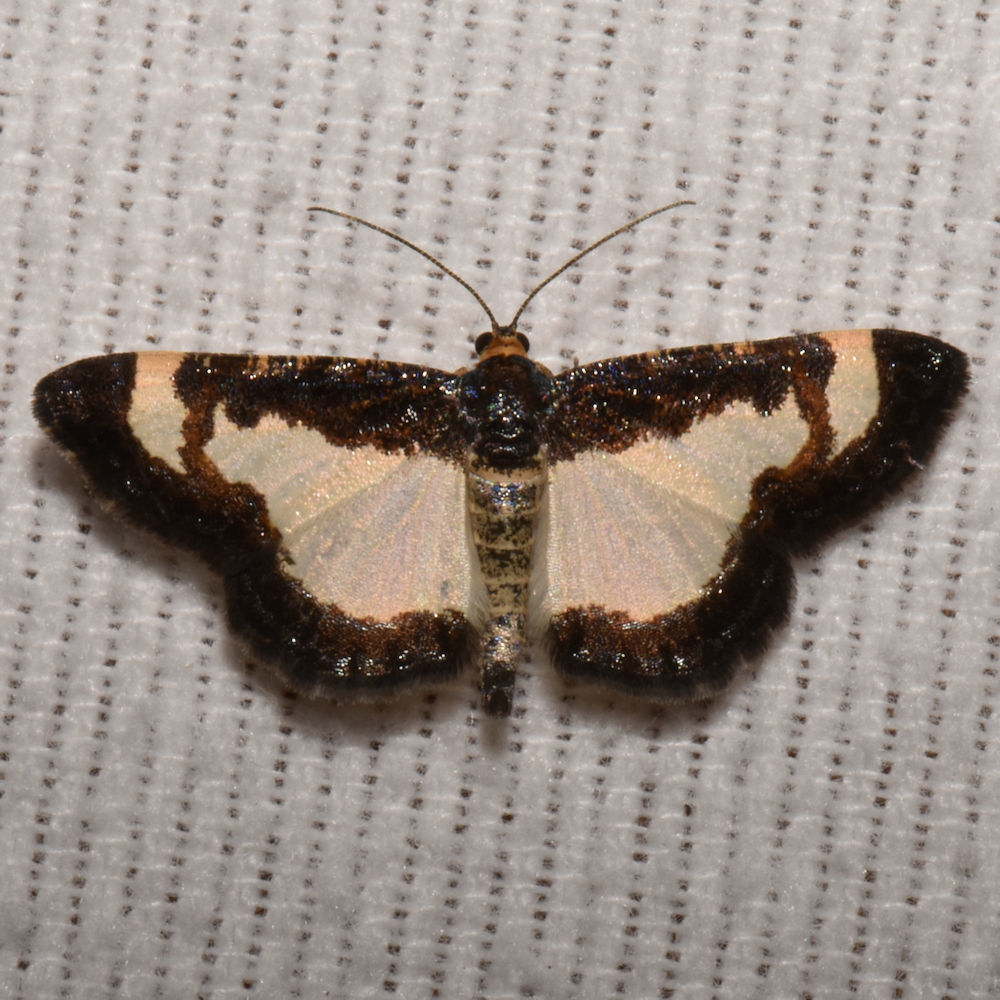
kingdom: Animalia
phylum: Arthropoda
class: Insecta
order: Lepidoptera
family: Geometridae
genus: Heliomata
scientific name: Heliomata cycladata
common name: Common spring moth
